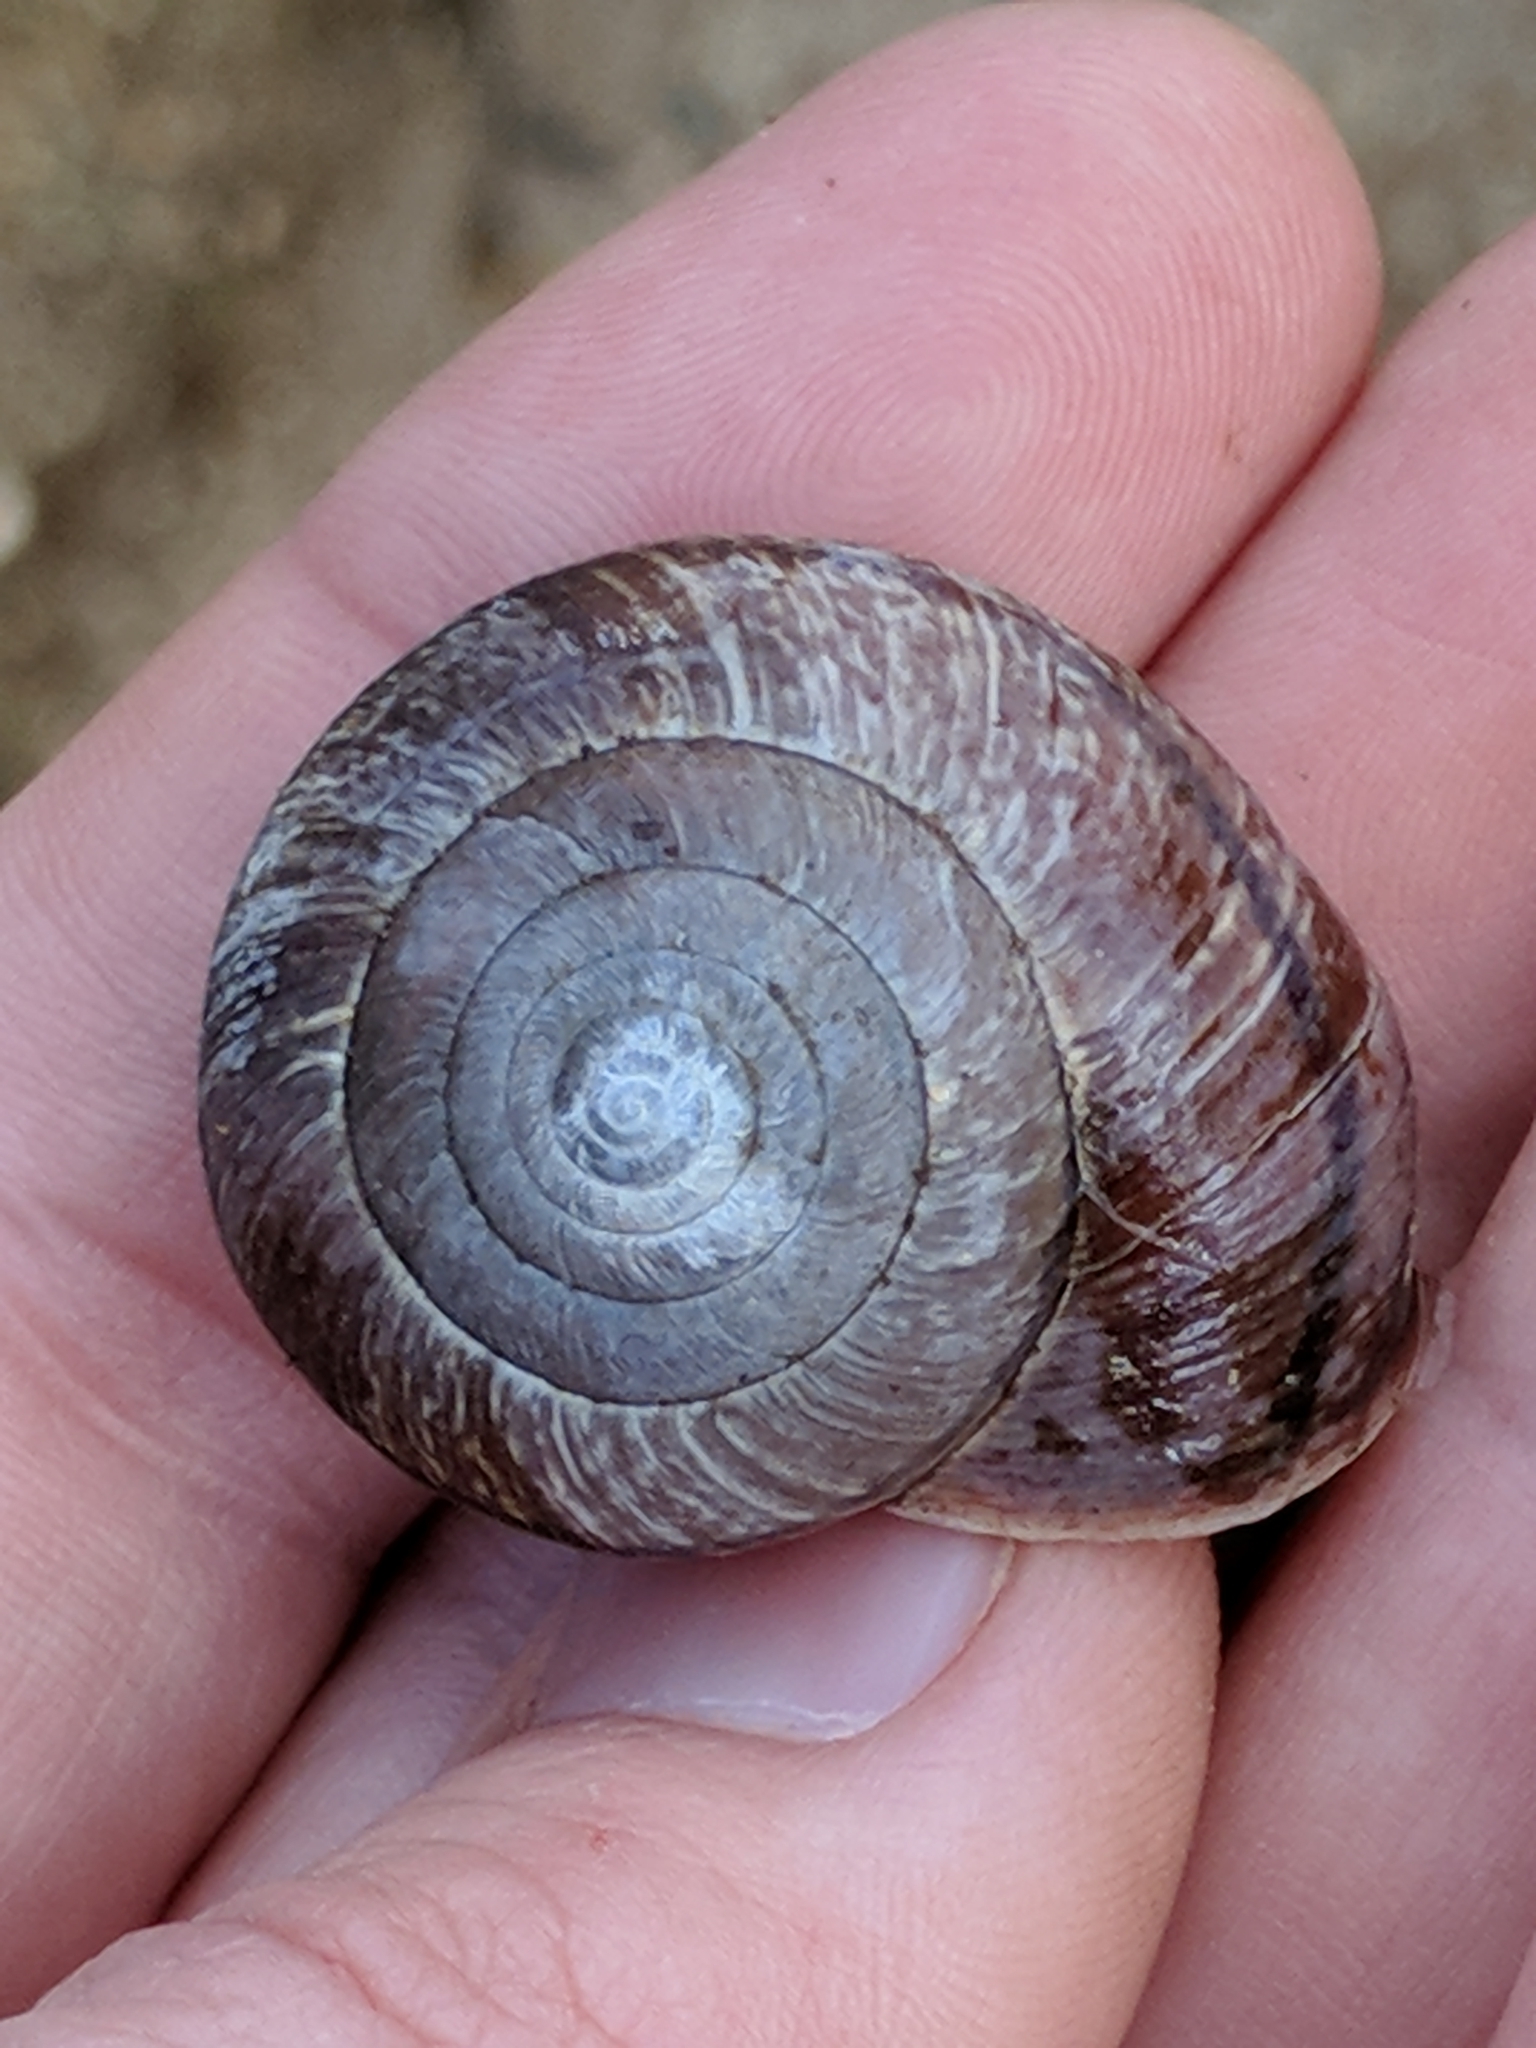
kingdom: Animalia
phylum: Mollusca
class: Gastropoda
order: Stylommatophora
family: Xanthonychidae
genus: Helminthoglypta
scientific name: Helminthoglypta arrosa
